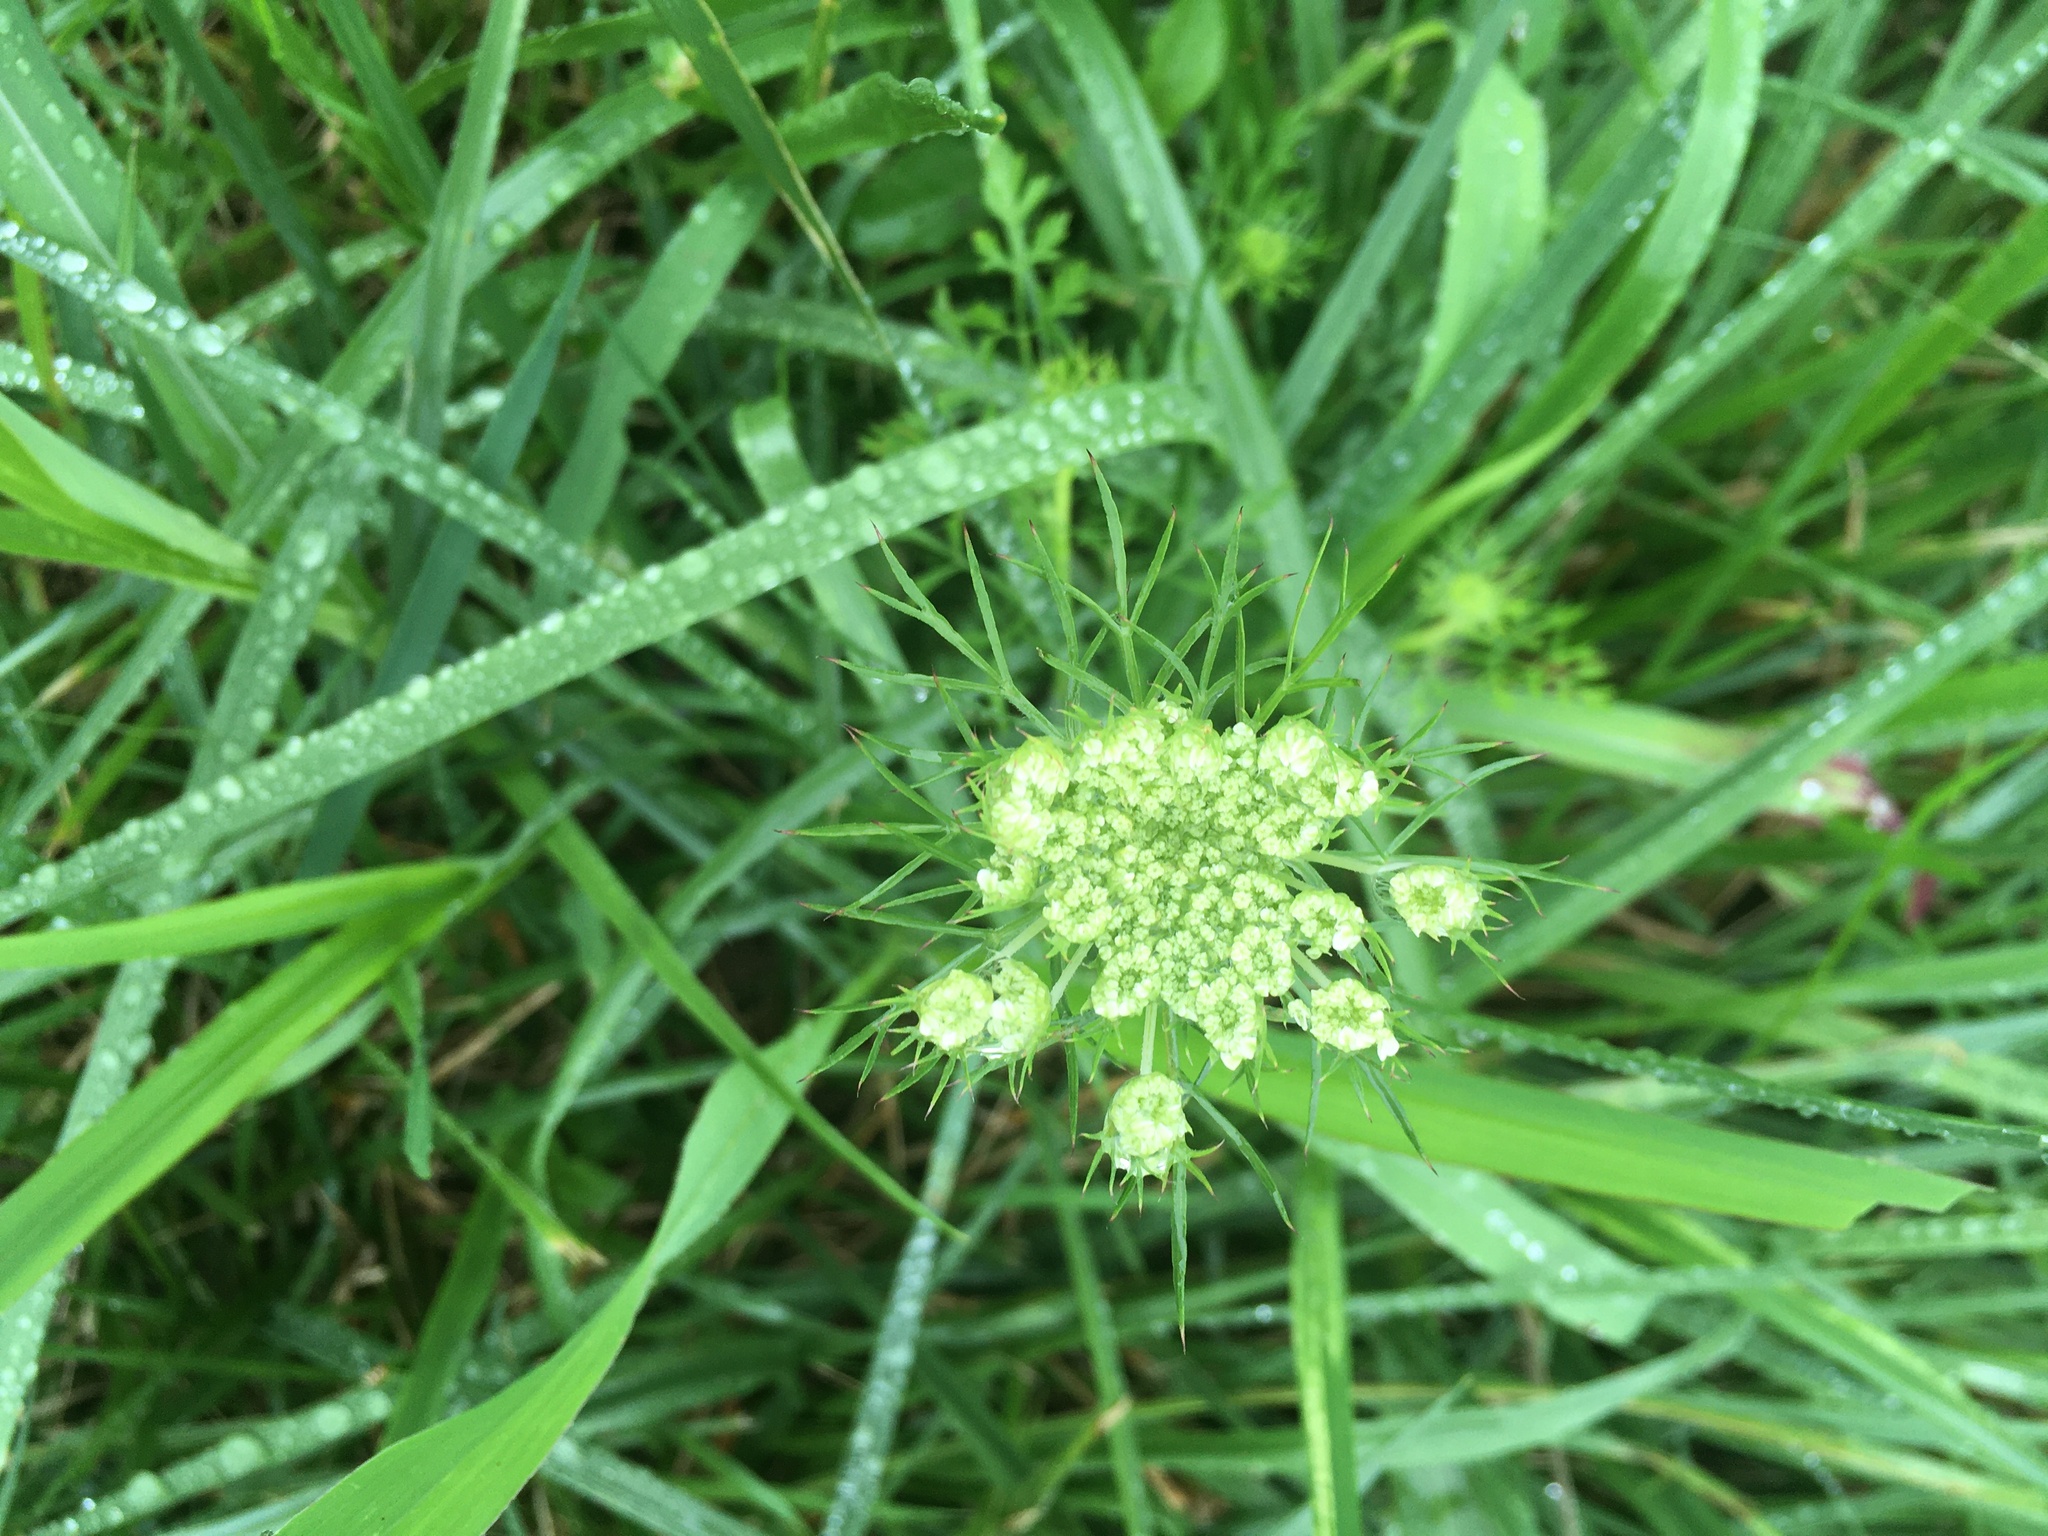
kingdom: Plantae
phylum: Tracheophyta
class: Magnoliopsida
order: Apiales
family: Apiaceae
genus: Daucus
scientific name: Daucus carota
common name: Wild carrot
